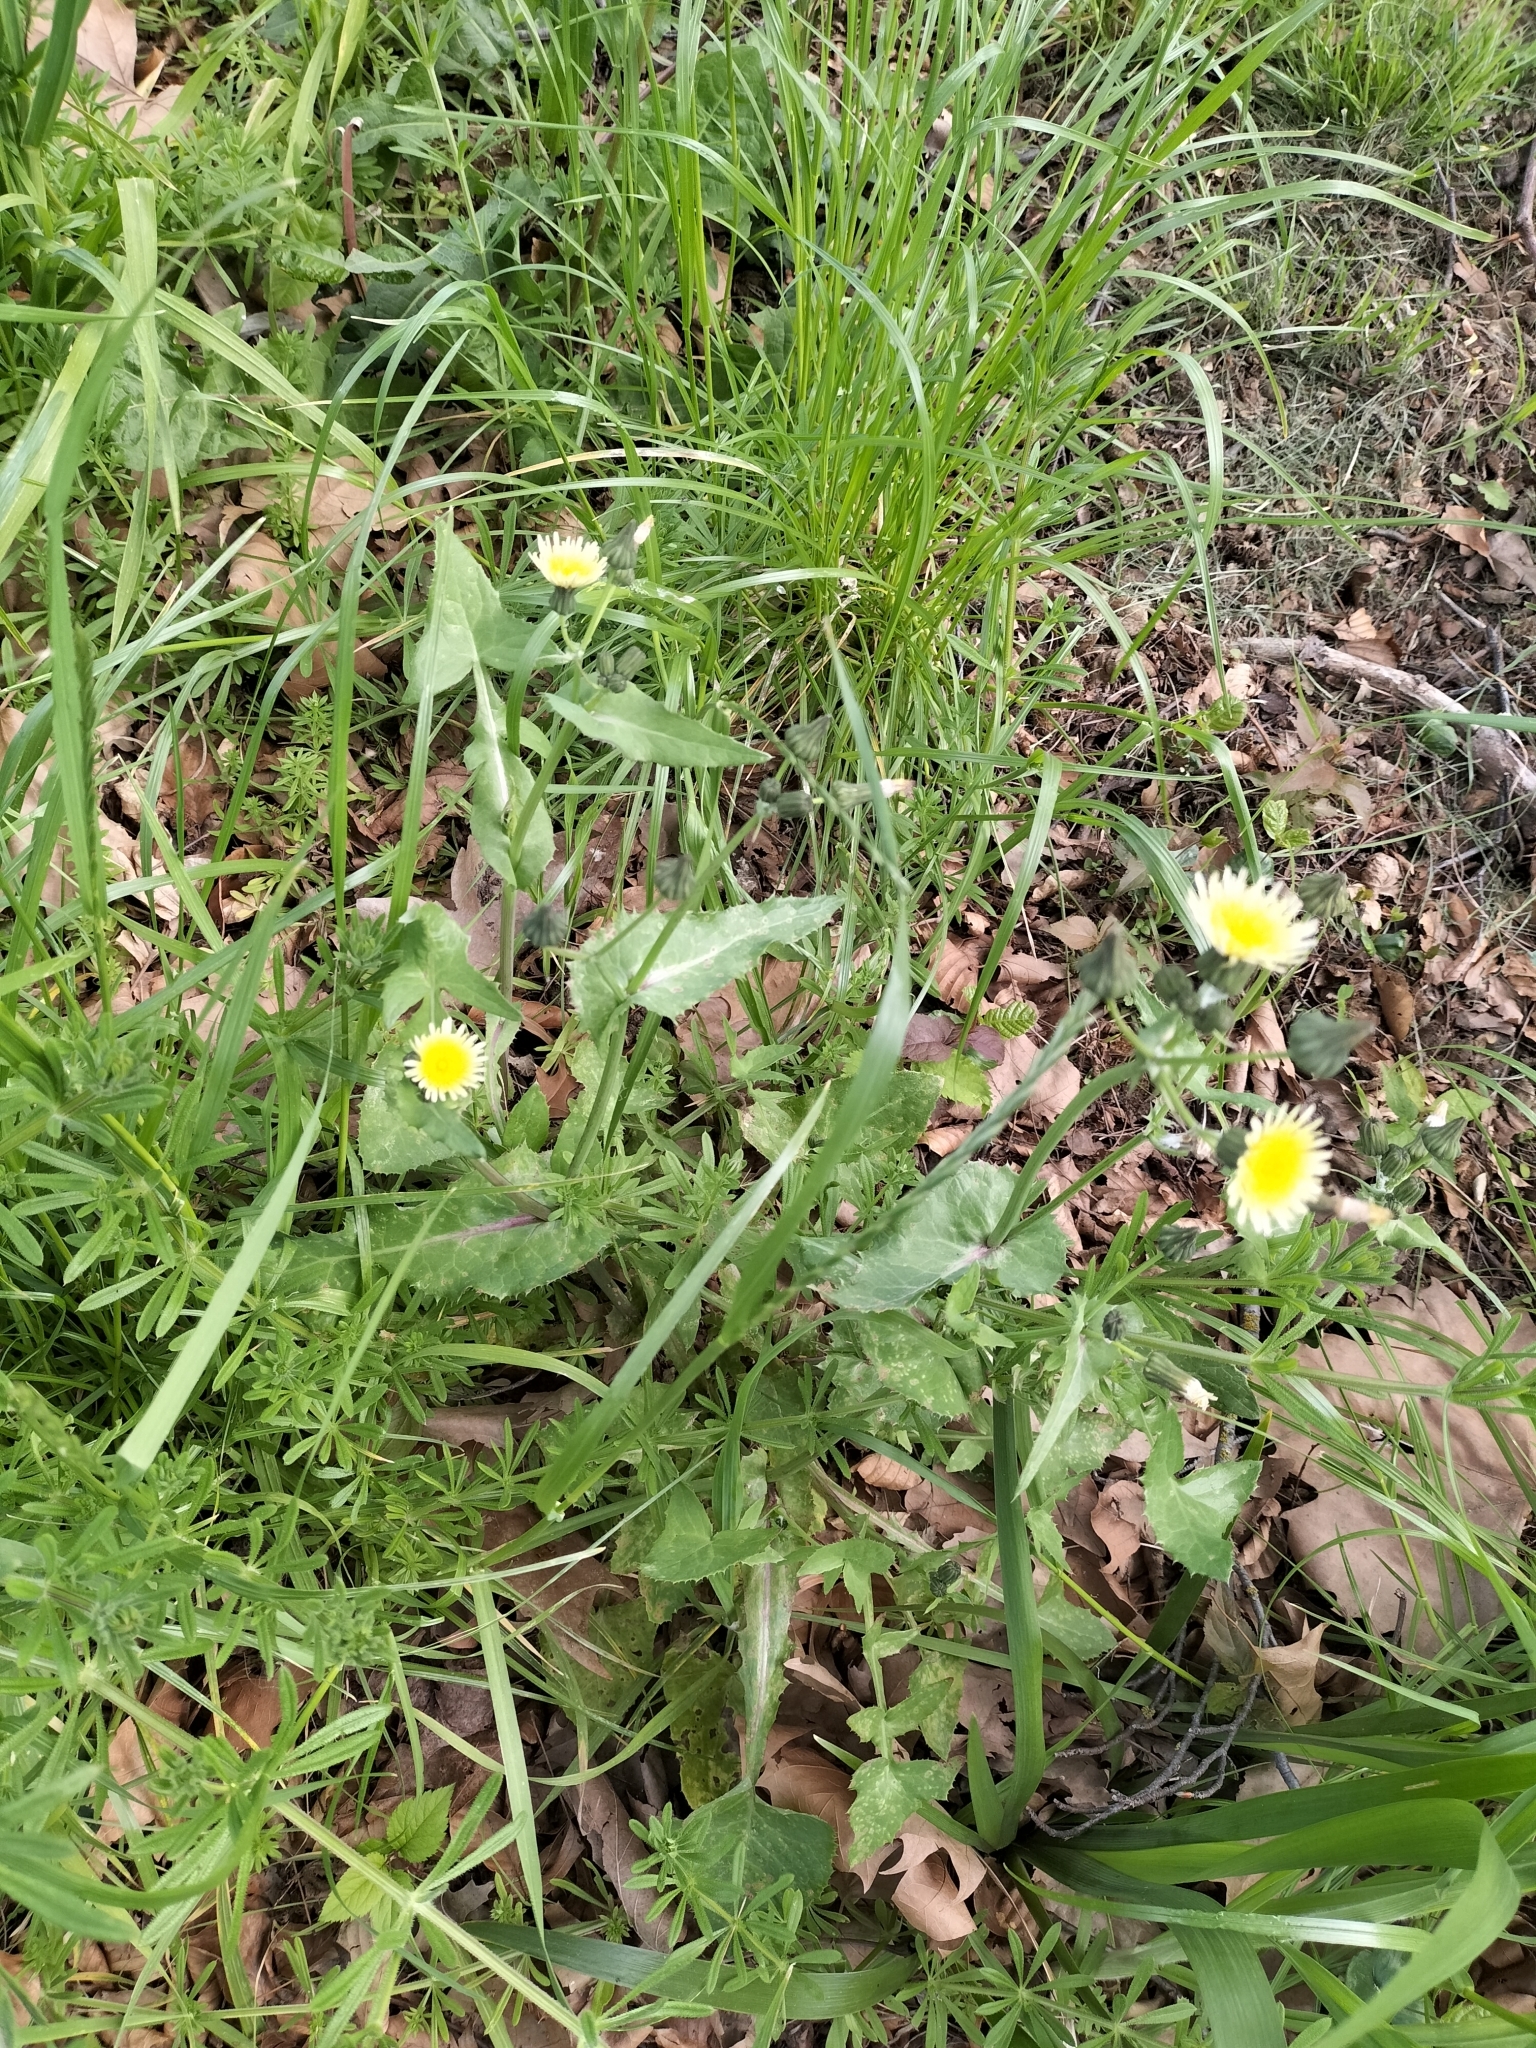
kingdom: Plantae
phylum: Tracheophyta
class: Magnoliopsida
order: Asterales
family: Asteraceae
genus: Sonchus
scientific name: Sonchus oleraceus
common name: Common sowthistle
